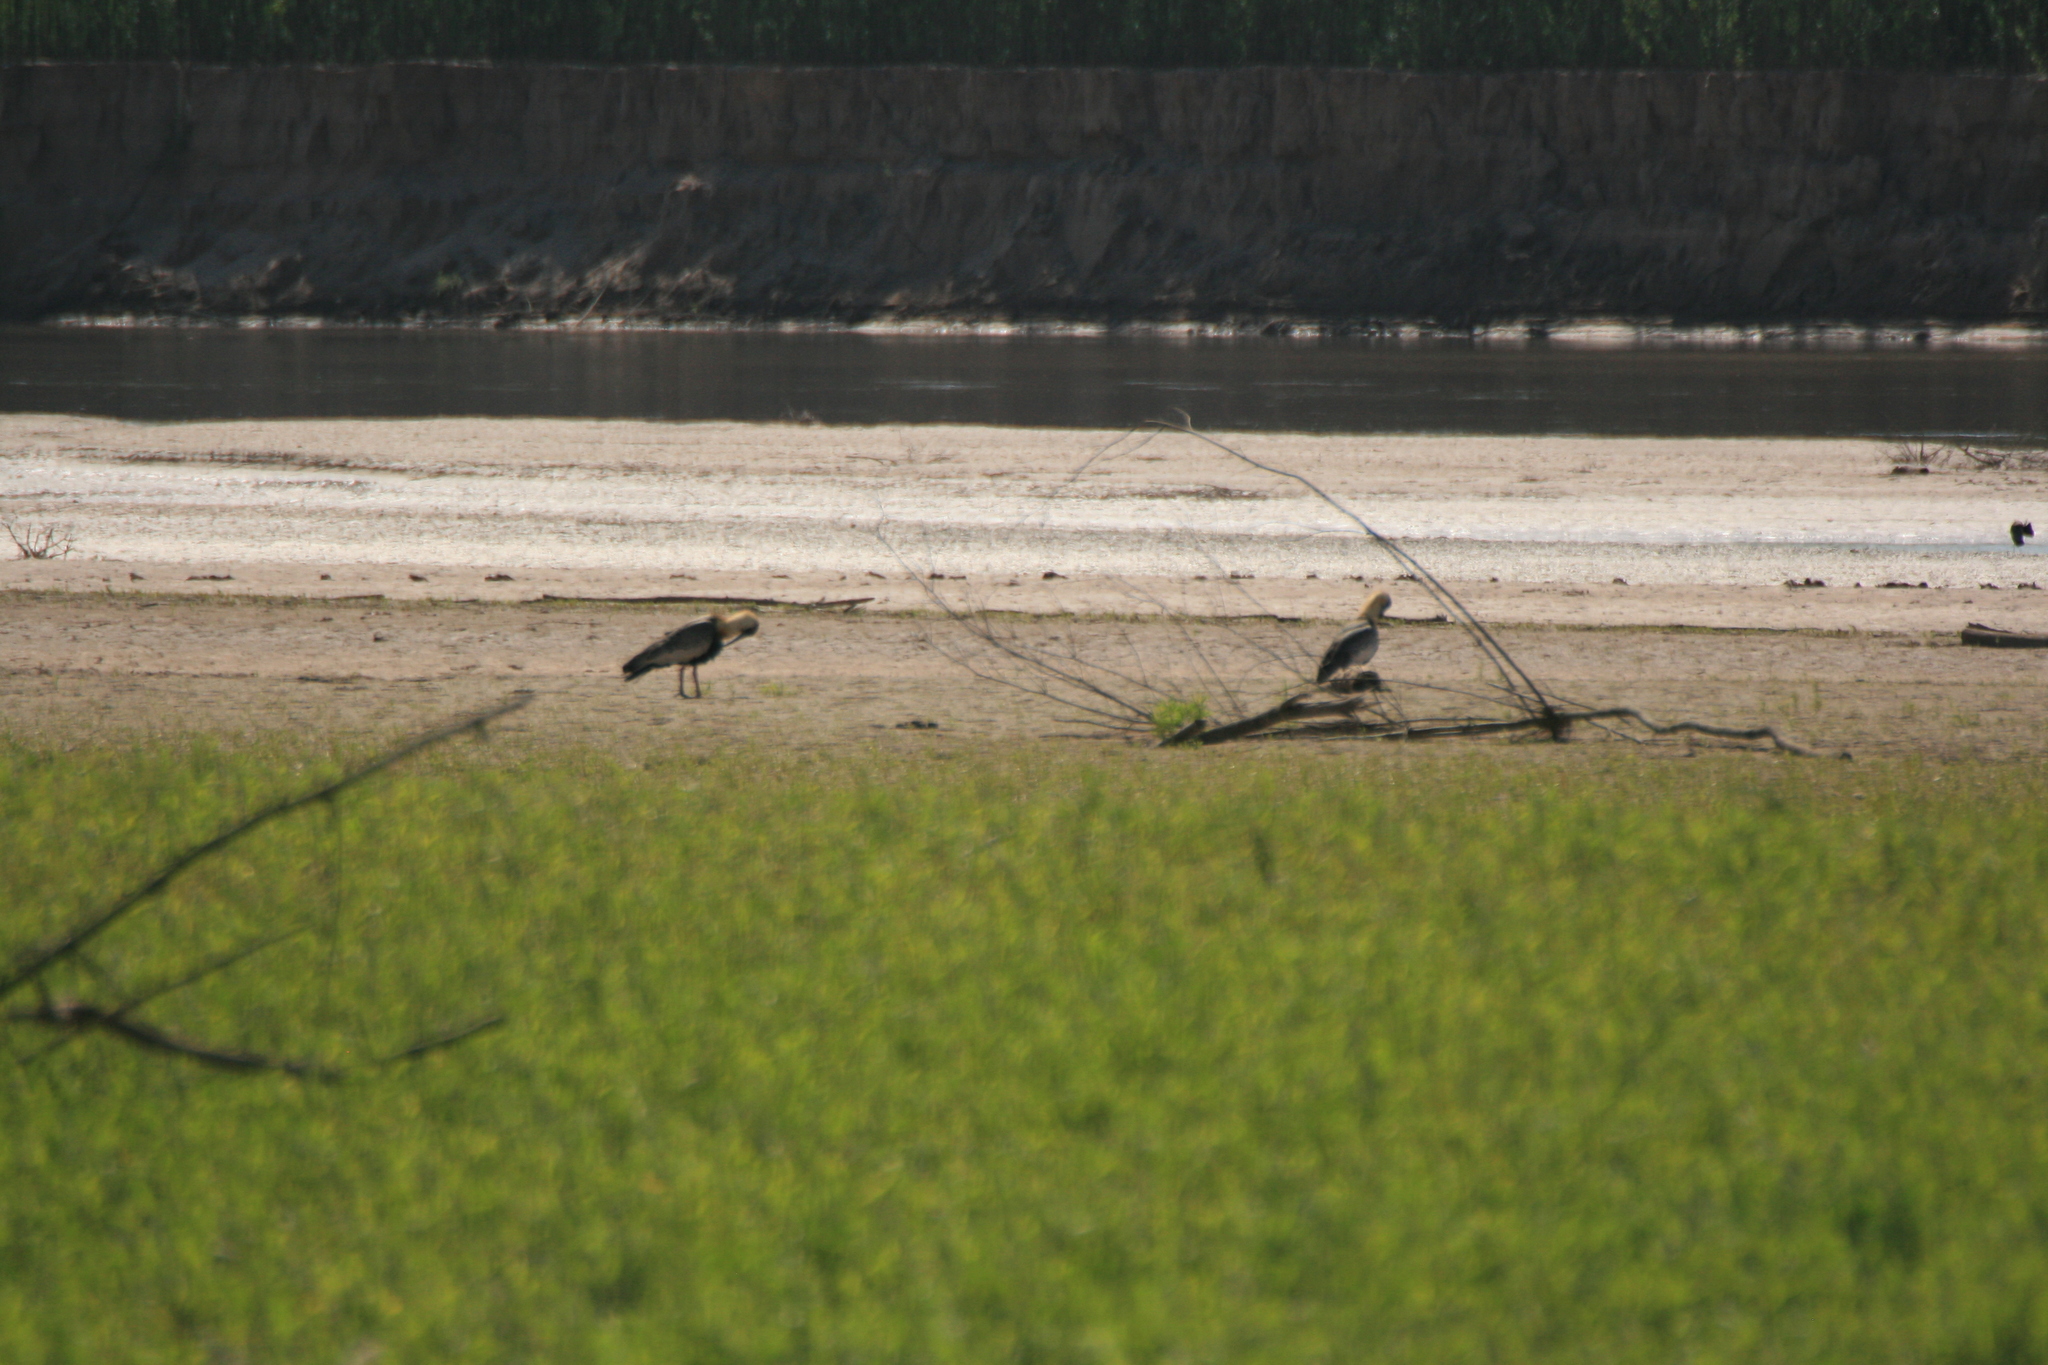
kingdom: Animalia
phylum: Chordata
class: Aves
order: Pelecaniformes
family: Threskiornithidae
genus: Theristicus
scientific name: Theristicus caudatus
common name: Buff-necked ibis
